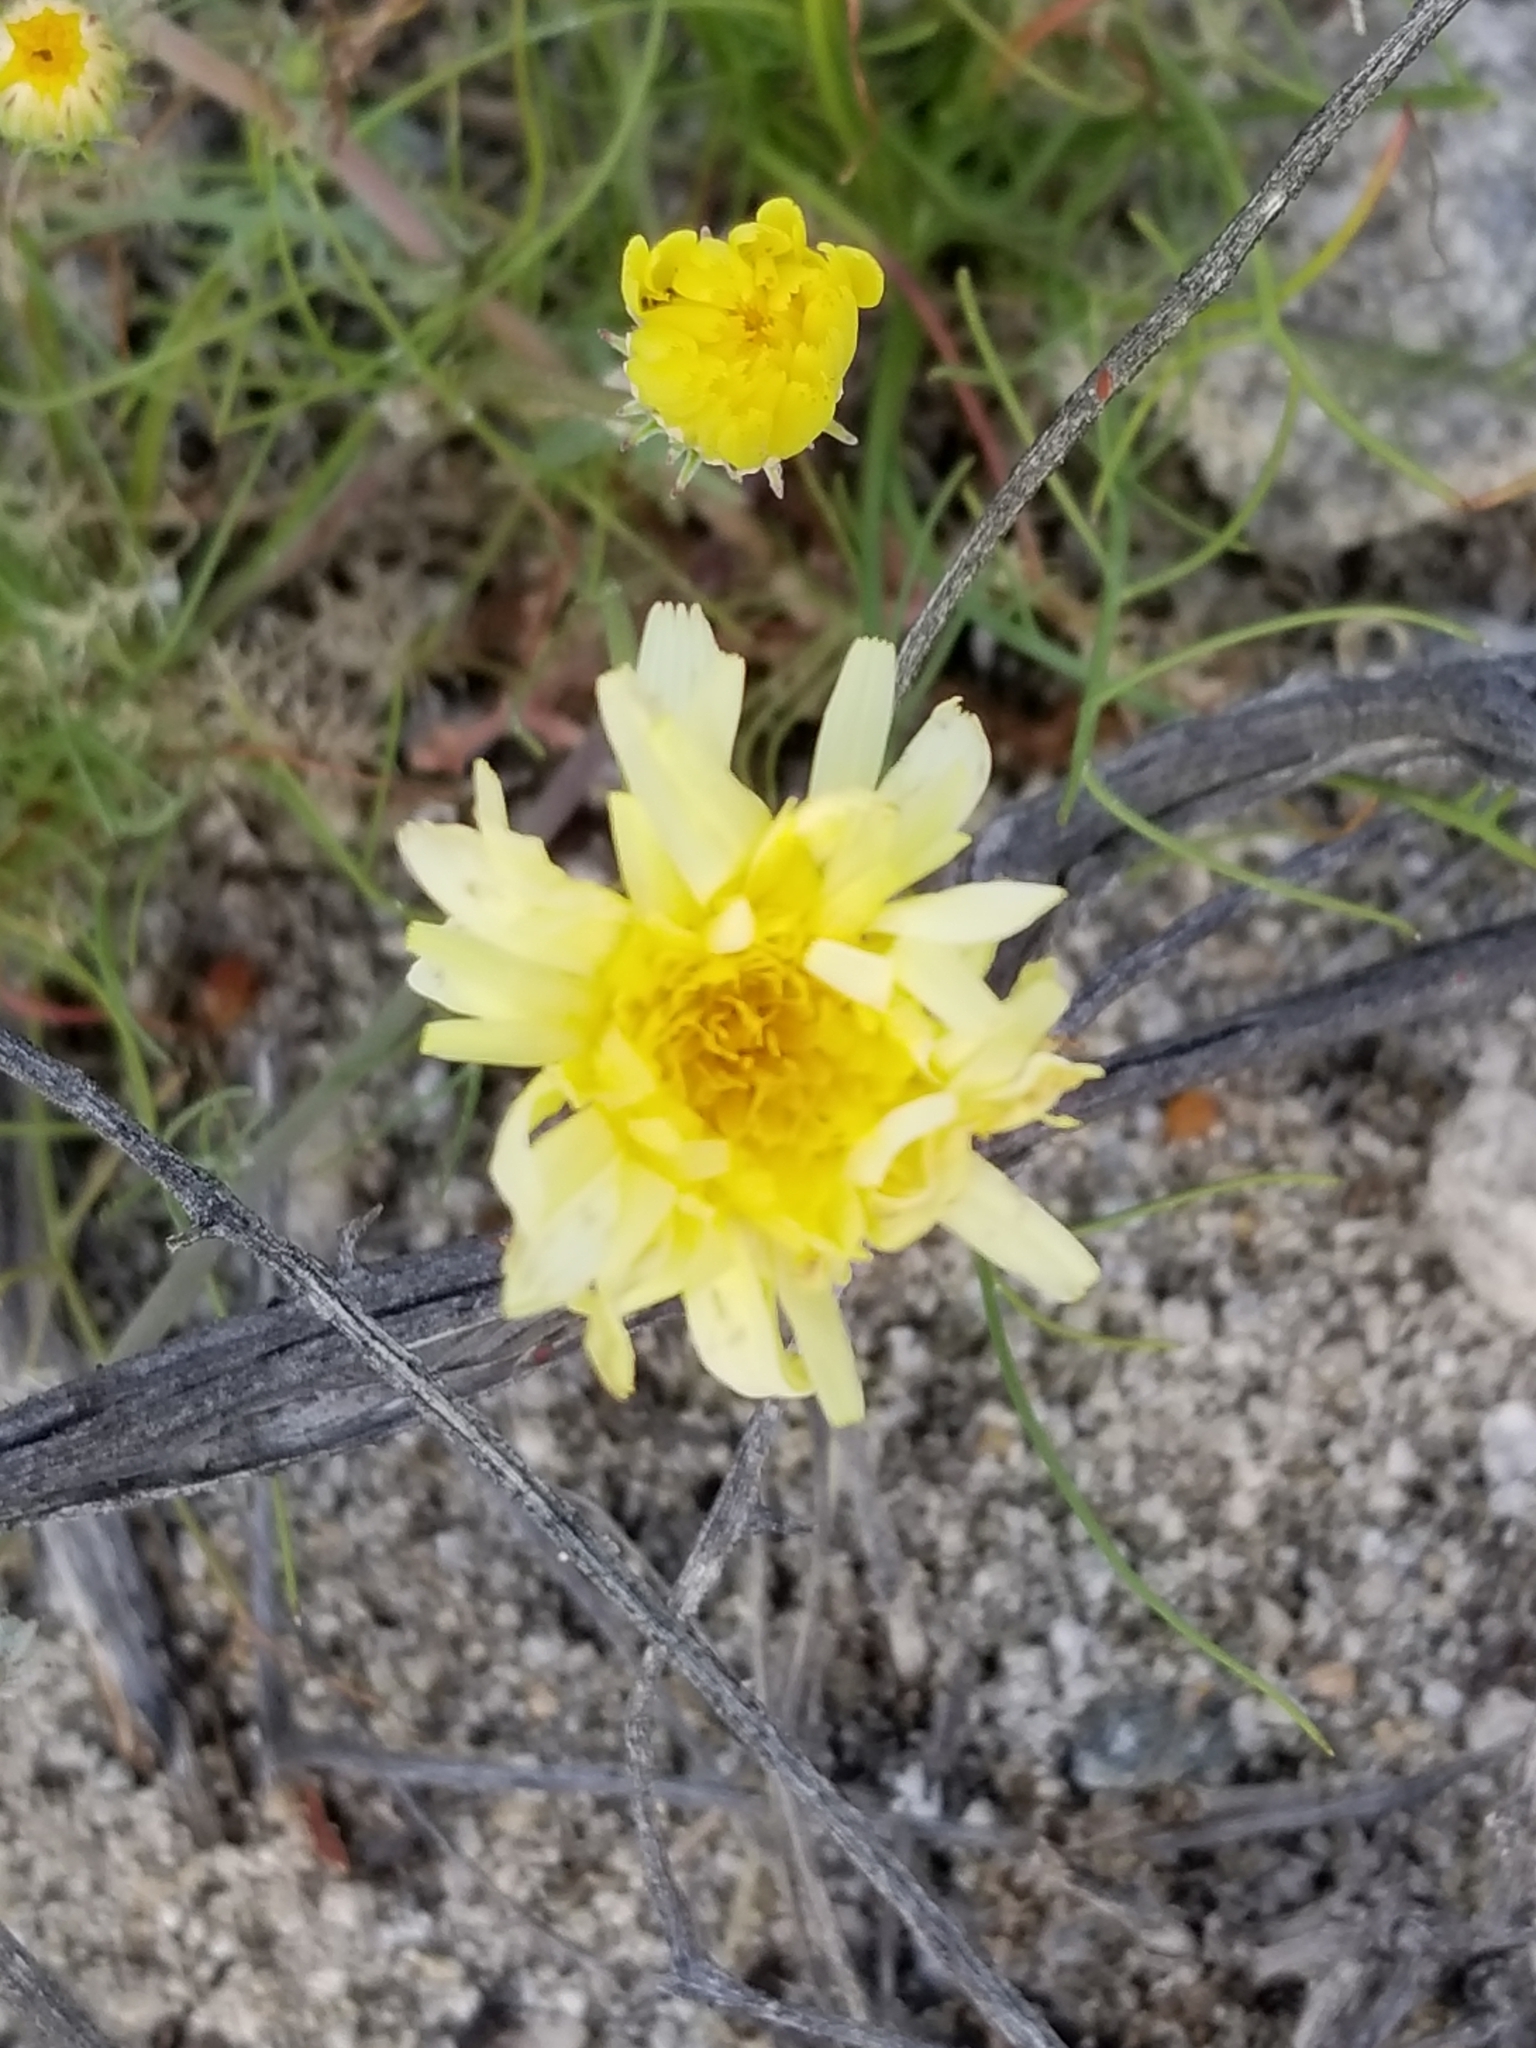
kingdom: Plantae
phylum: Tracheophyta
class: Magnoliopsida
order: Asterales
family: Asteraceae
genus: Malacothrix
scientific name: Malacothrix glabrata
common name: Smooth desert-dandelion
